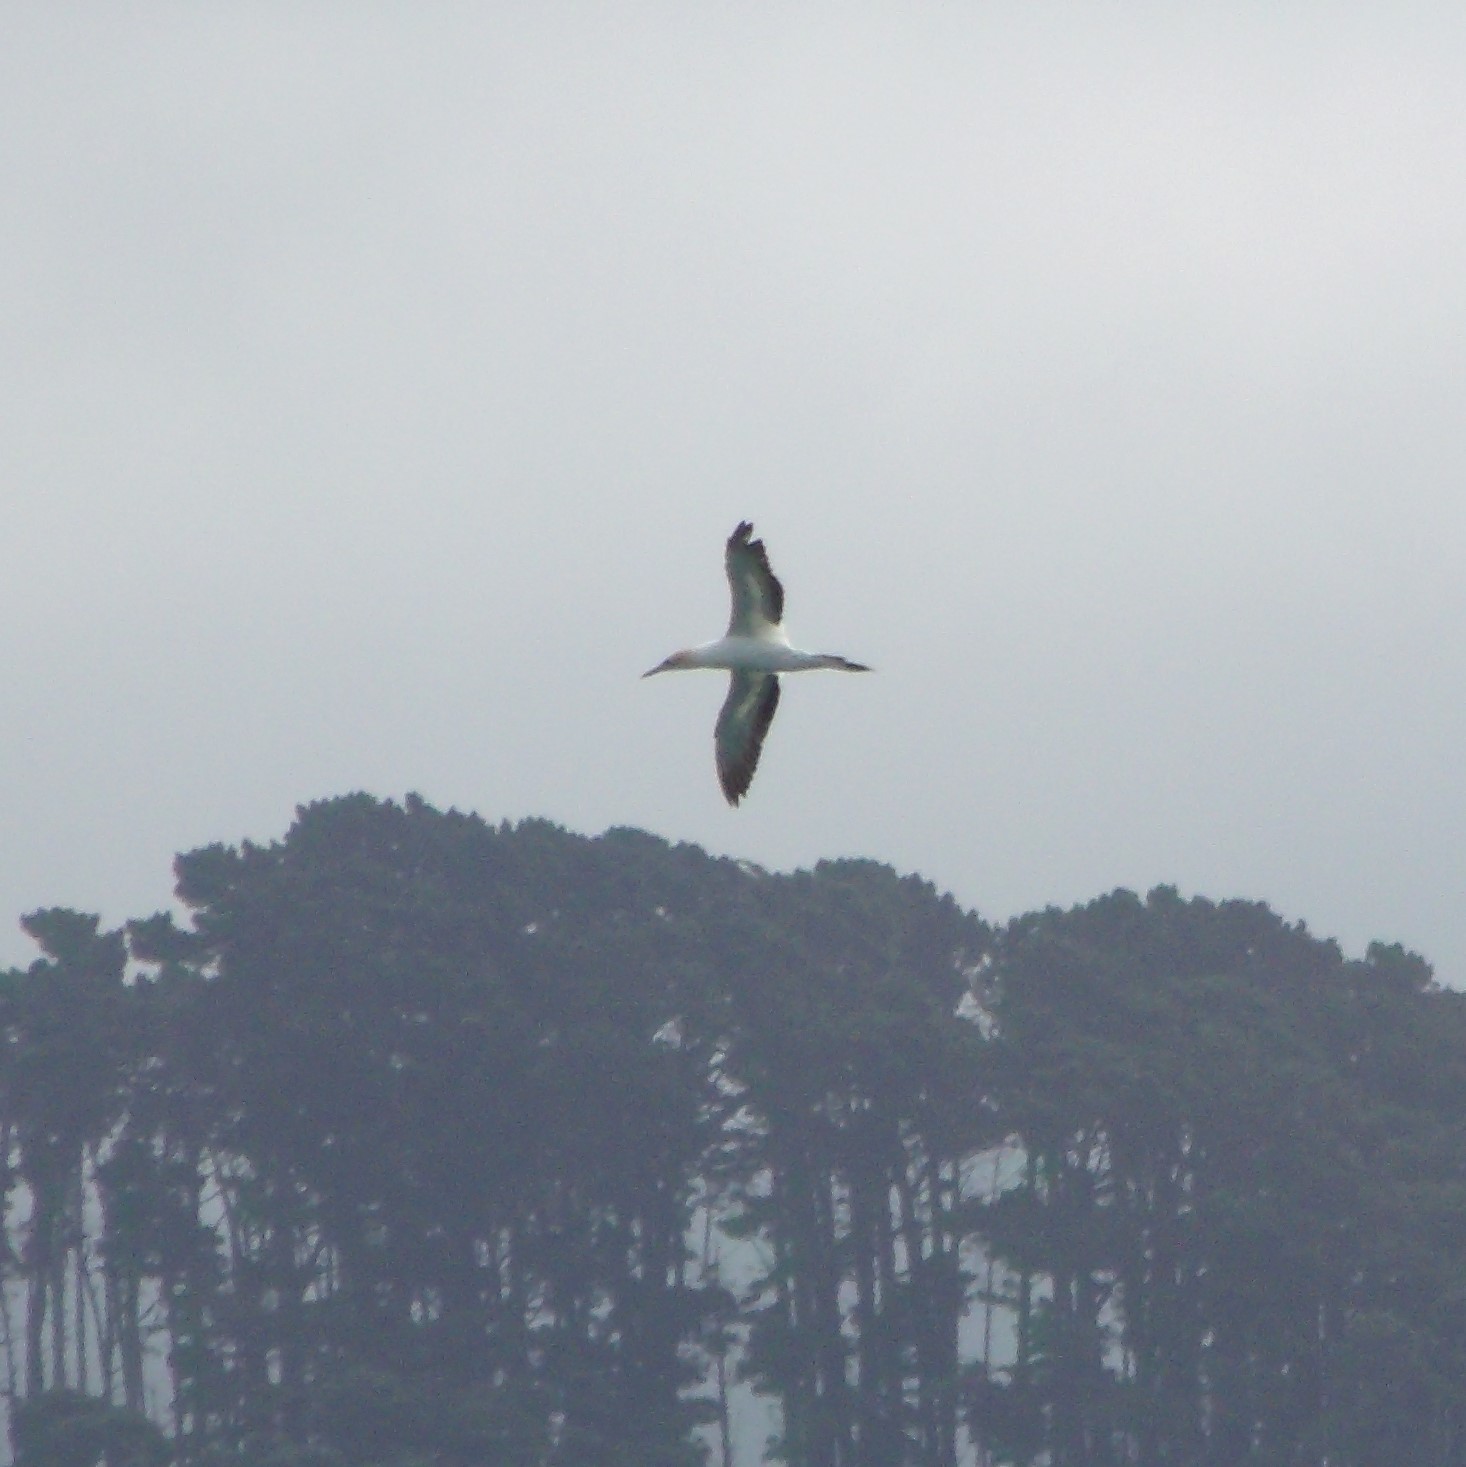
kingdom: Animalia
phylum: Chordata
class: Aves
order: Suliformes
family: Sulidae
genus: Morus
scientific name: Morus serrator
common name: Australasian gannet
